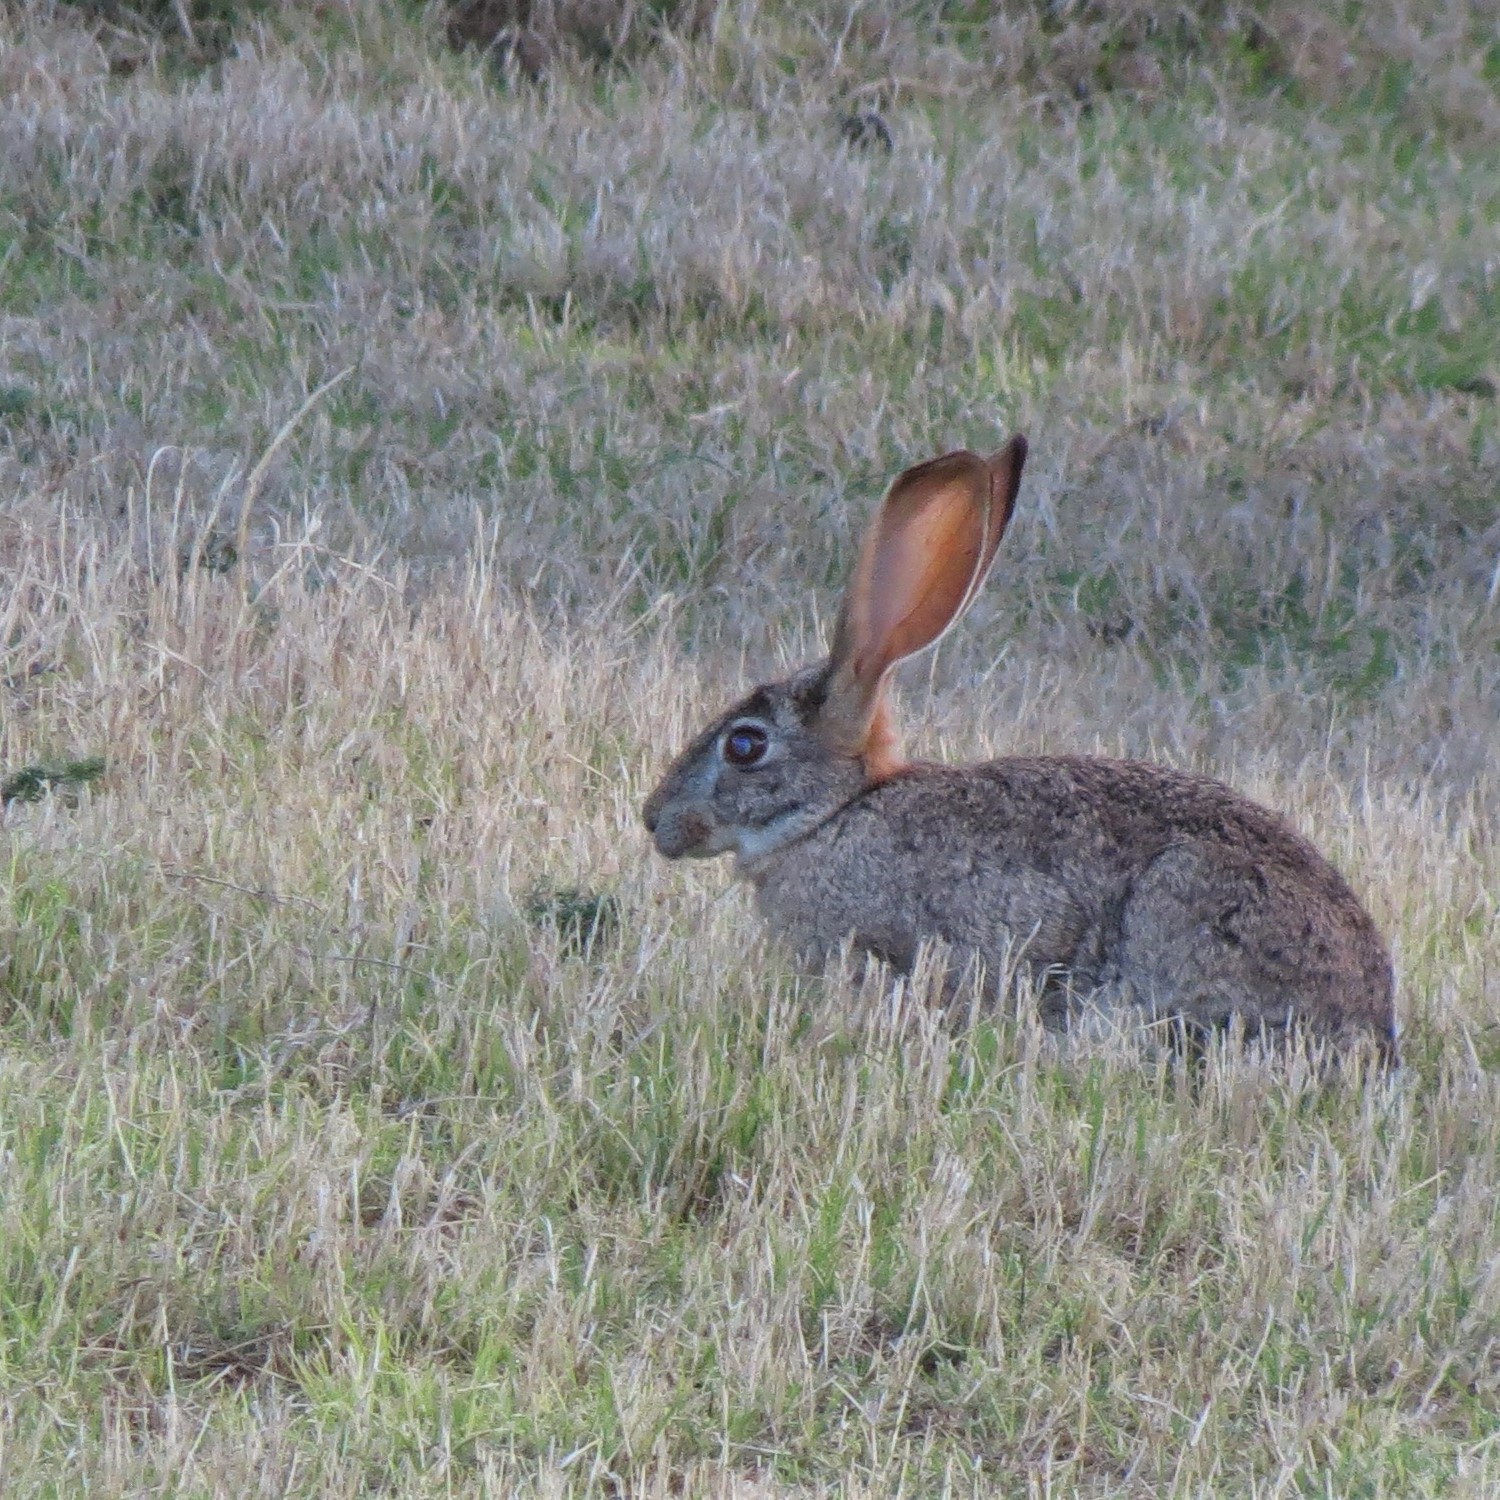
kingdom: Animalia
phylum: Chordata
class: Mammalia
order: Lagomorpha
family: Leporidae
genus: Lepus
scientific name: Lepus saxatilis
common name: Scrub hare
